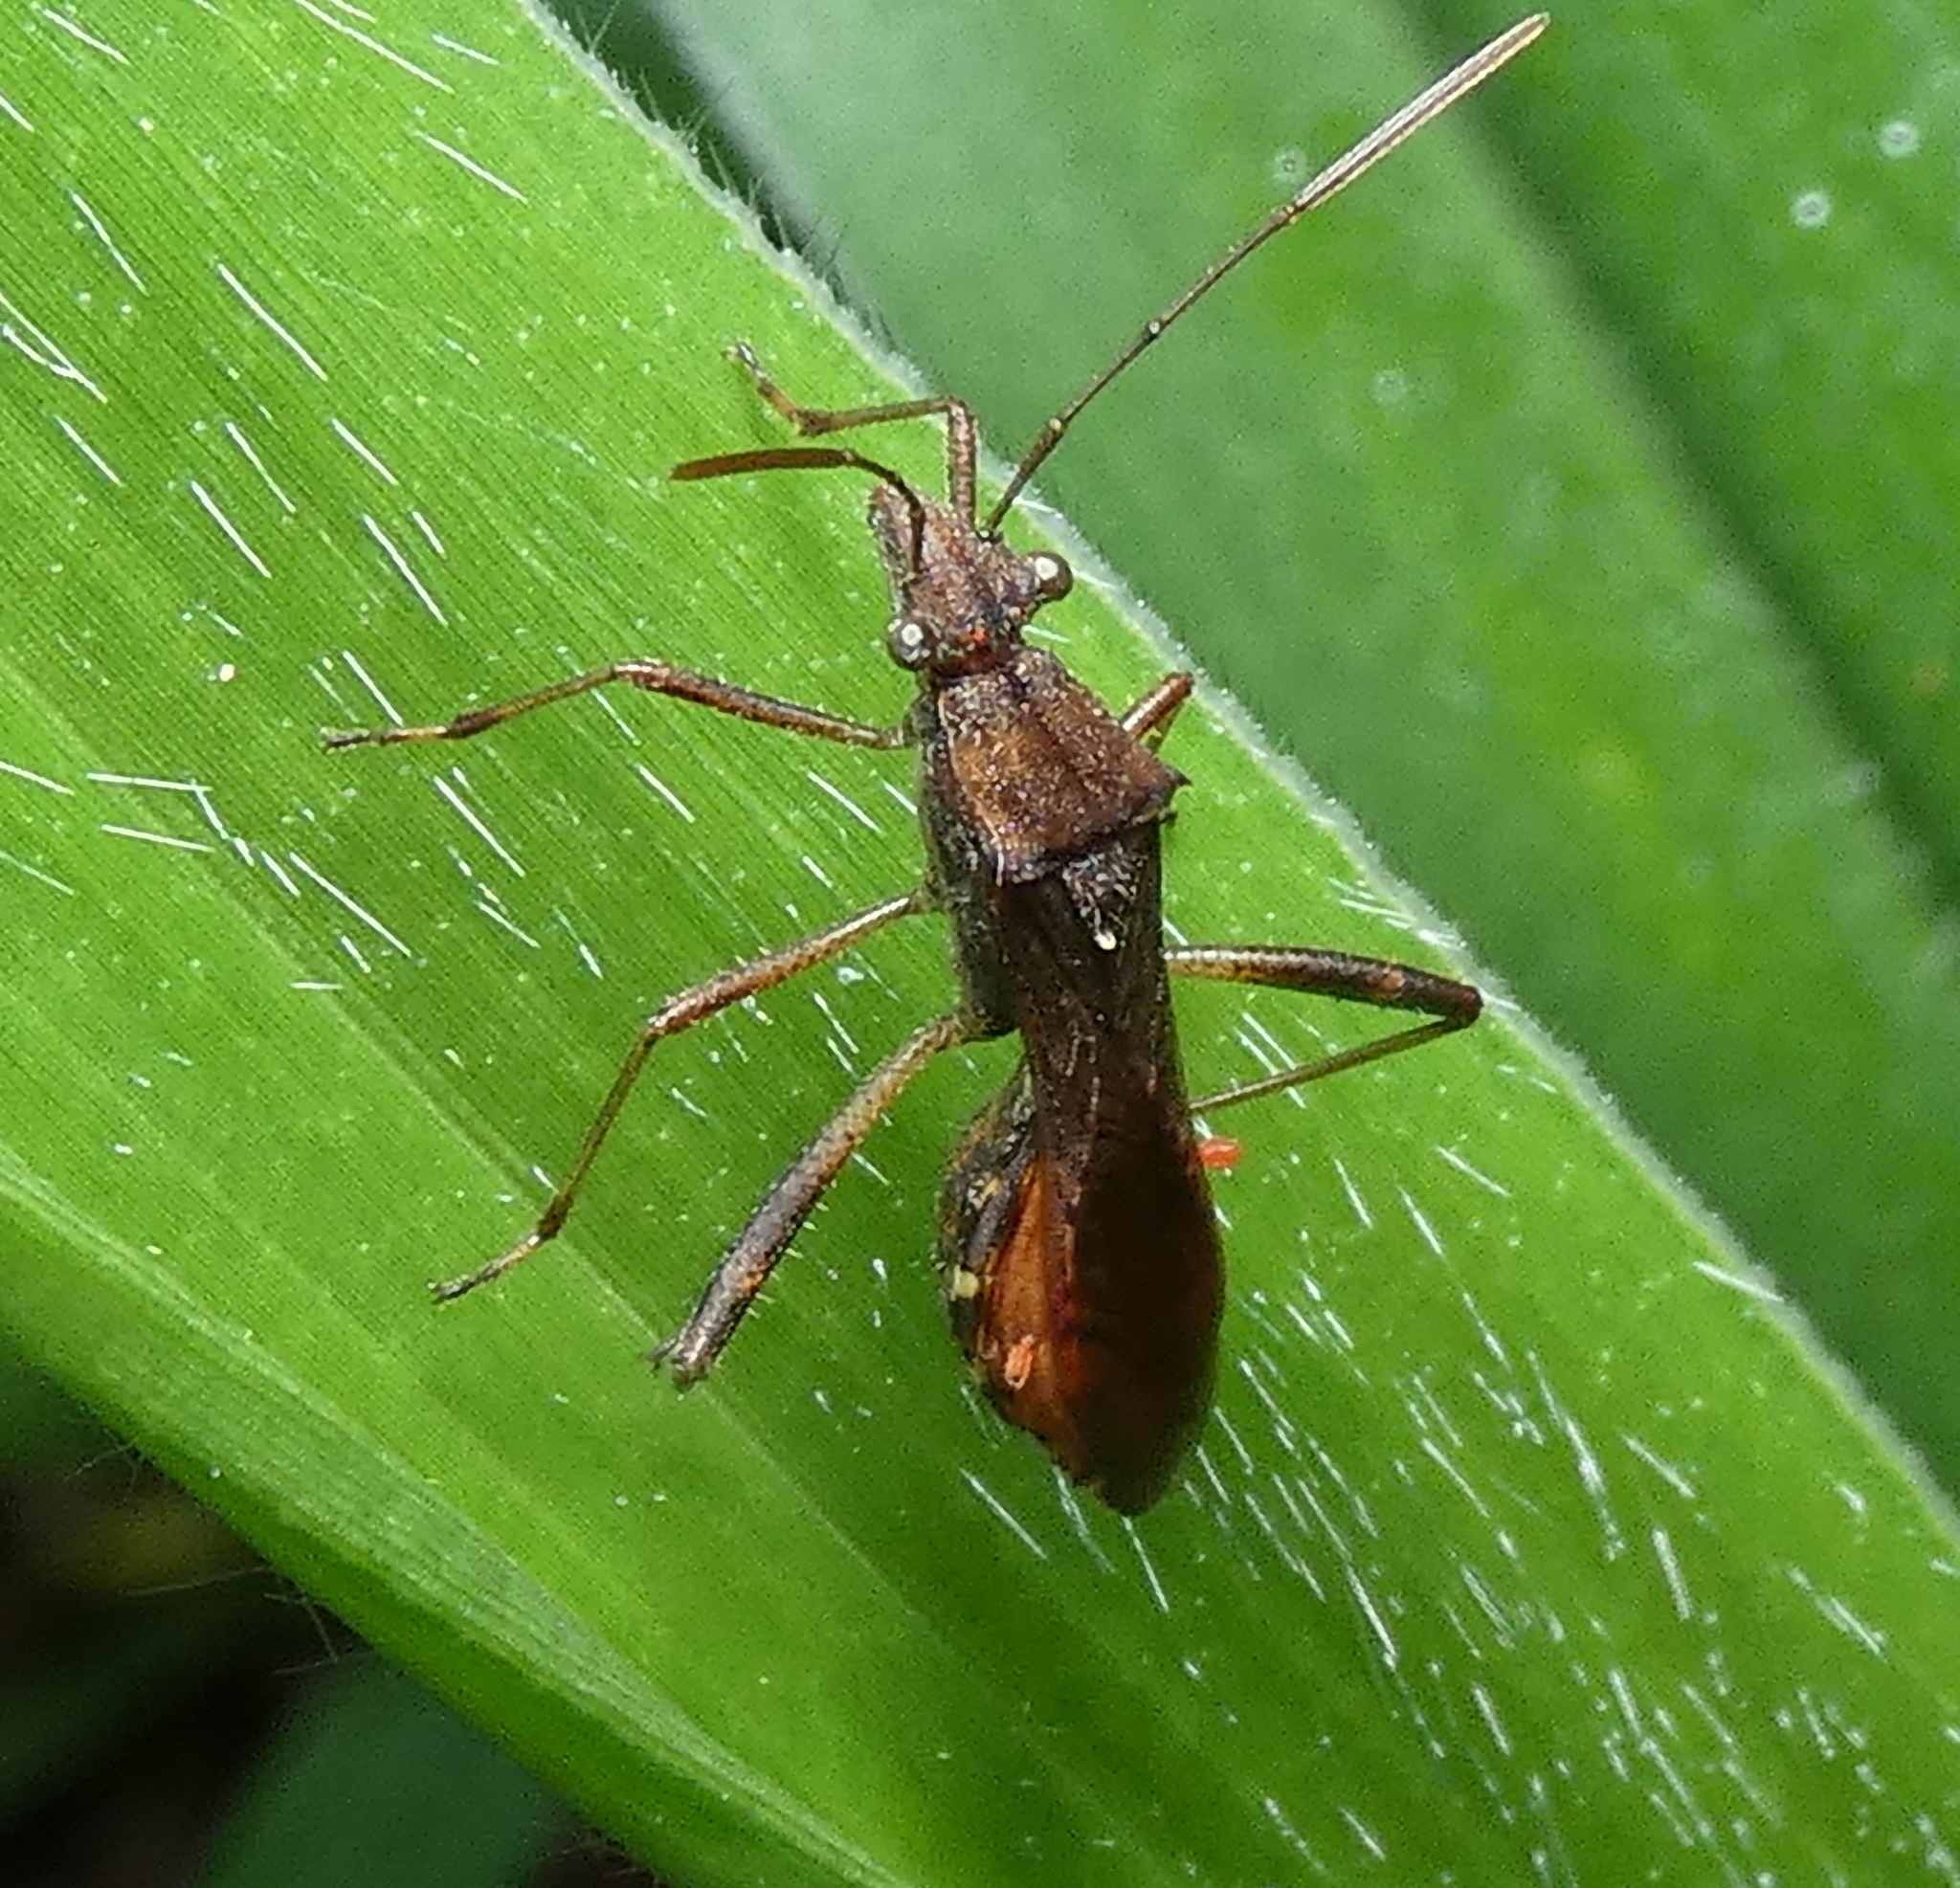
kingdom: Animalia
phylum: Arthropoda
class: Insecta
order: Hemiptera
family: Alydidae
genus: Neomegalotomus
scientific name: Neomegalotomus parvus
